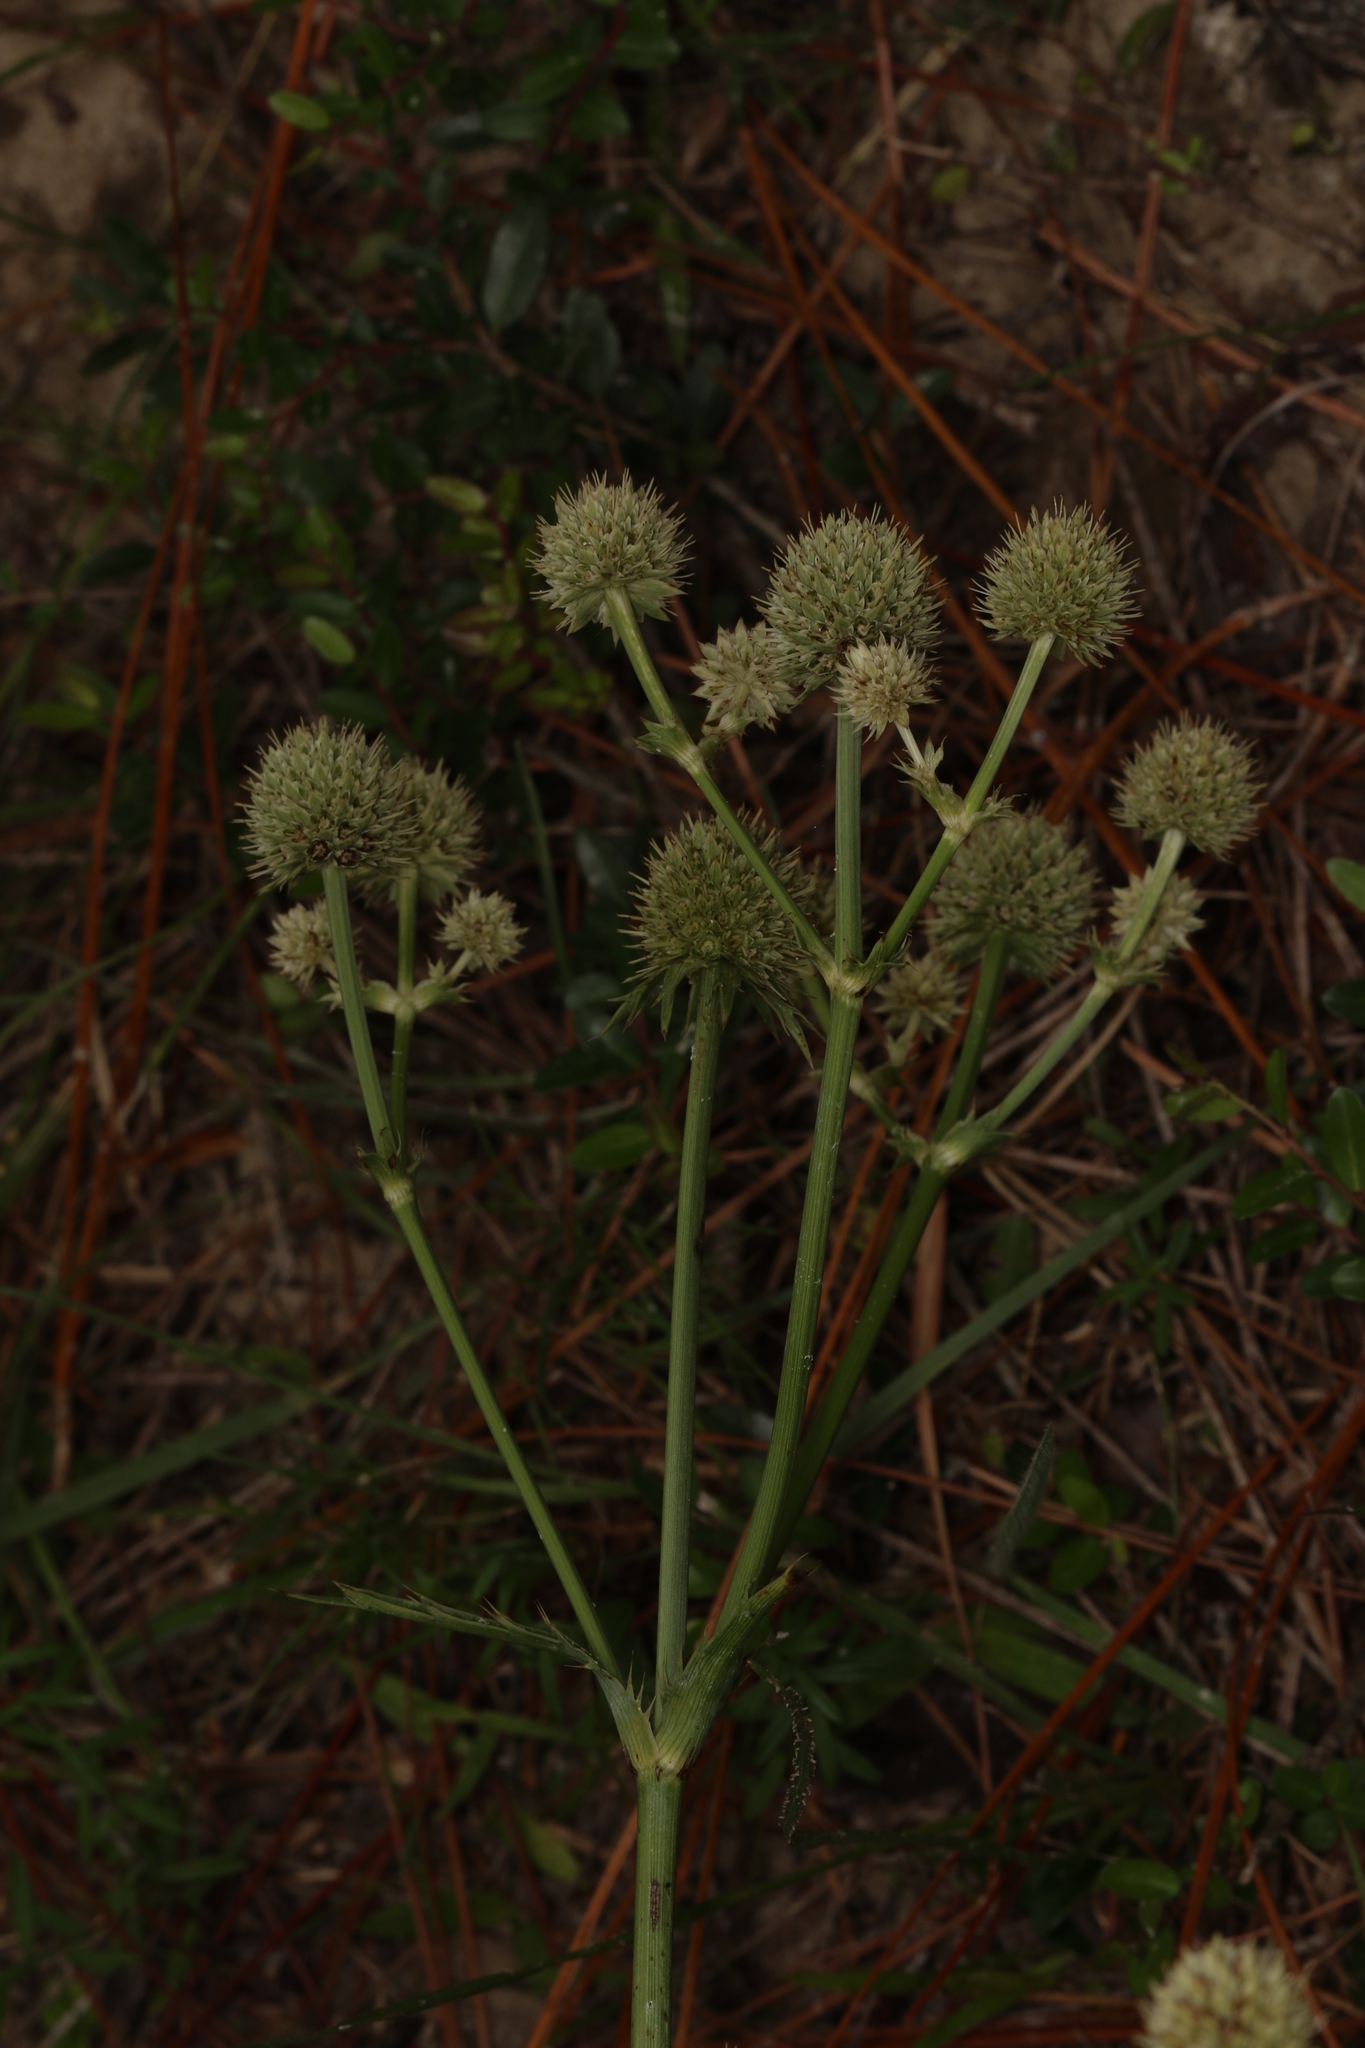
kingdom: Plantae
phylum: Tracheophyta
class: Magnoliopsida
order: Apiales
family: Apiaceae
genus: Eryngium
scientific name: Eryngium yuccifolium
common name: Button eryngo
